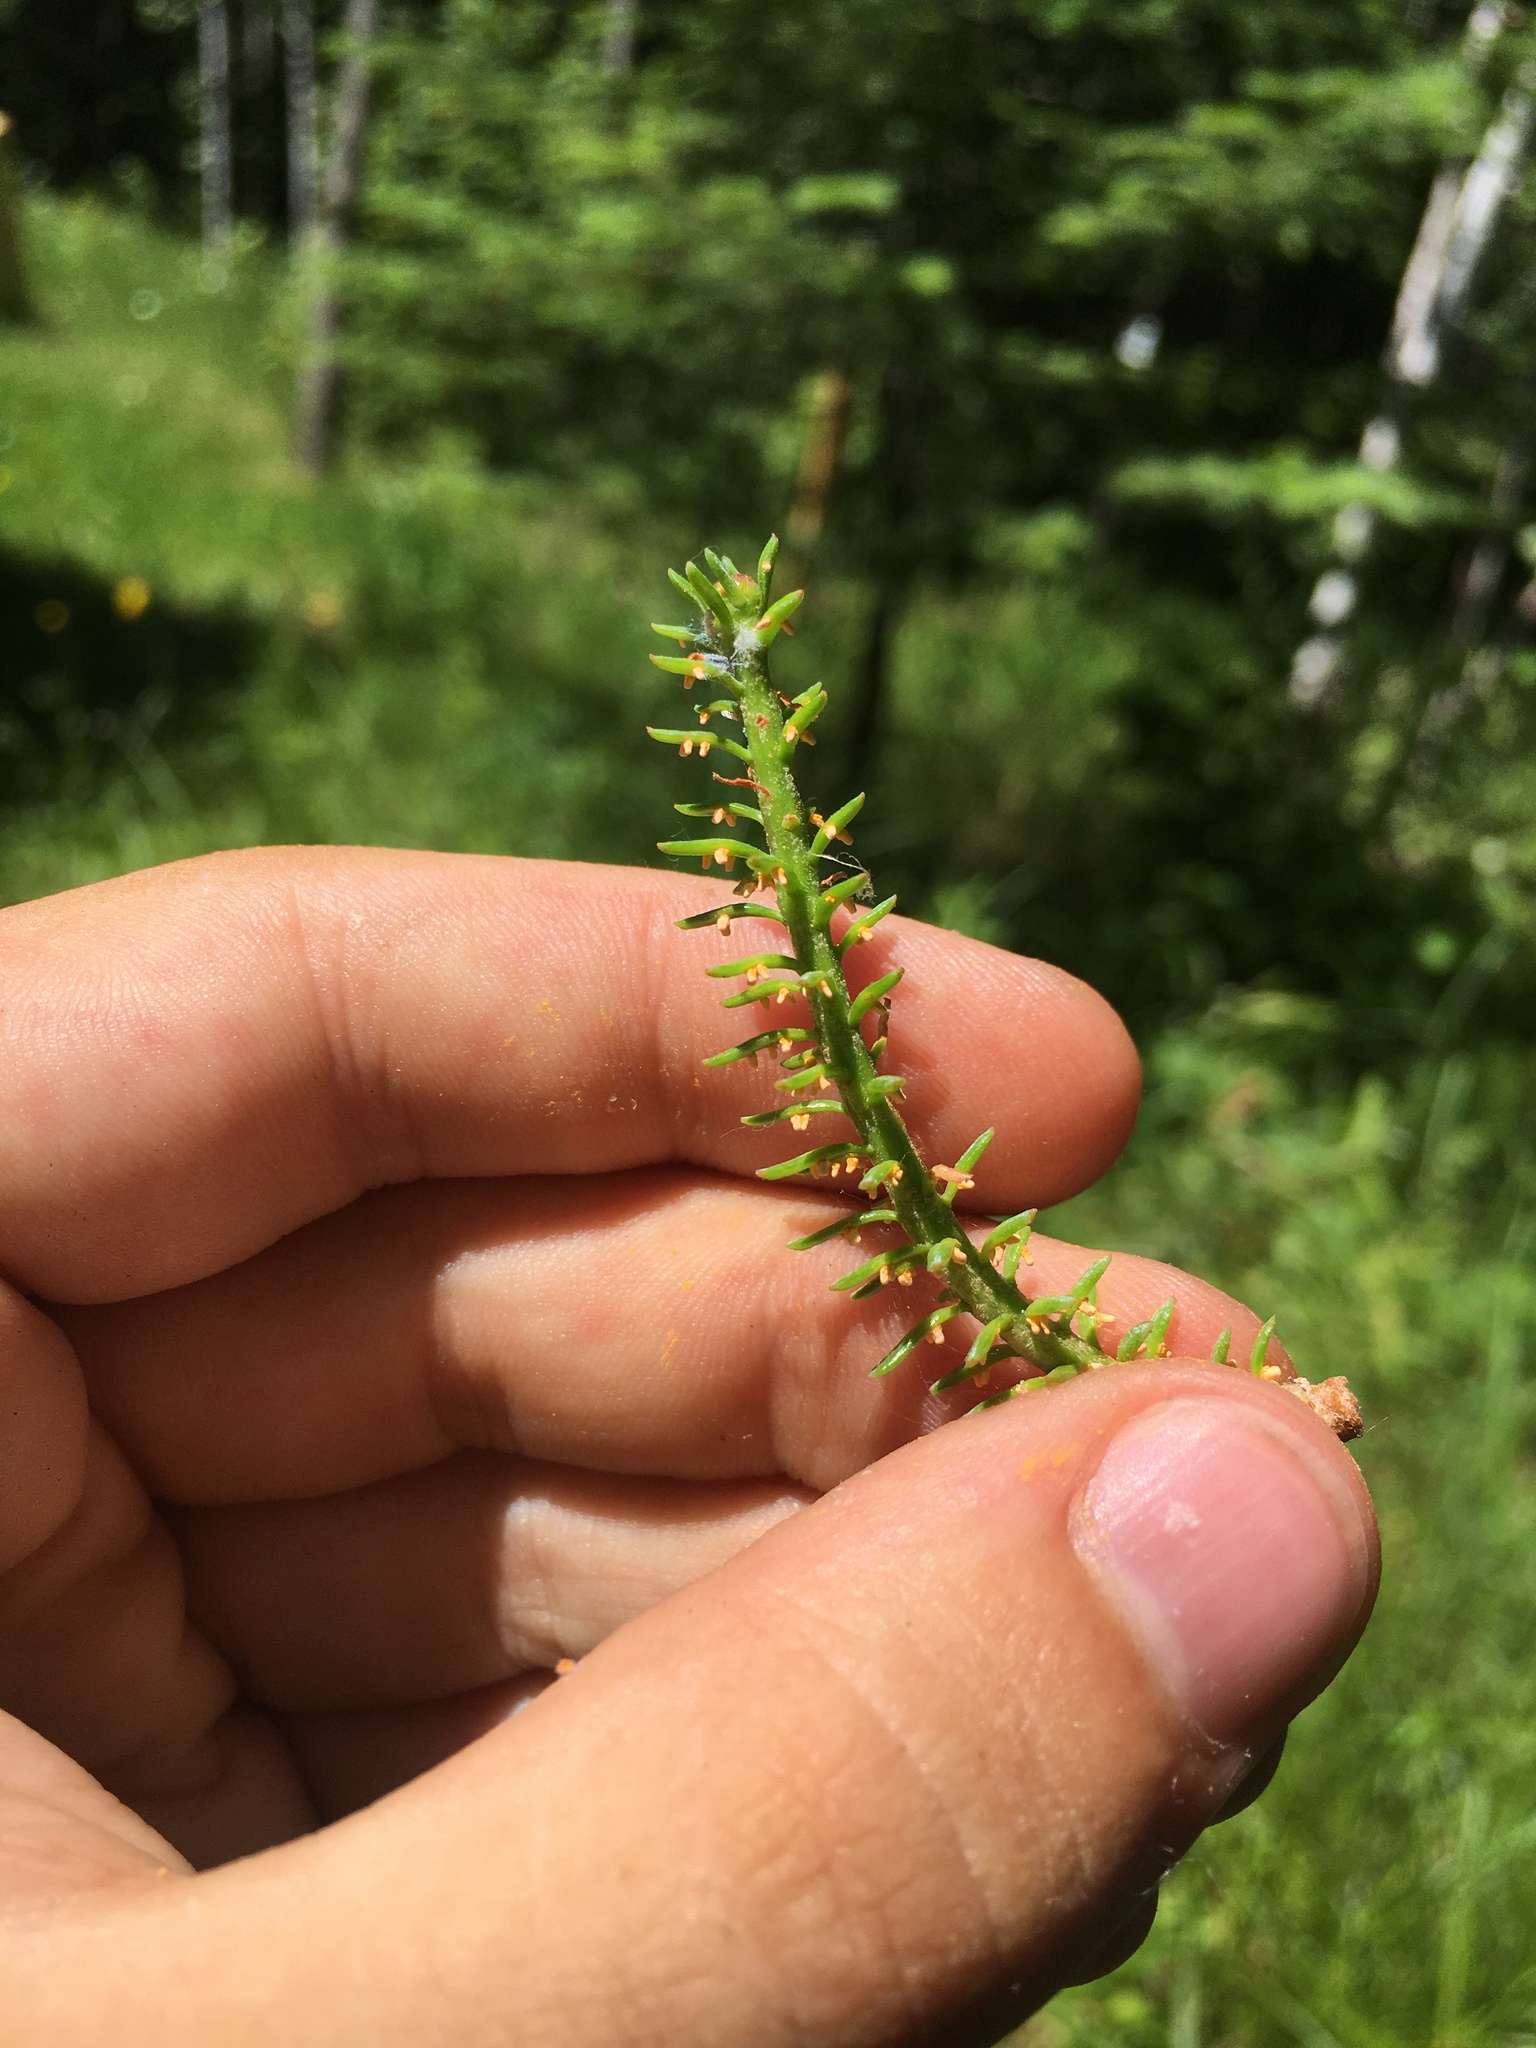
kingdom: Animalia
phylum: Arthropoda
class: Insecta
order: Hemiptera
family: Aphididae
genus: Mindarus
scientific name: Mindarus pinicola
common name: Balsam twig aphid
